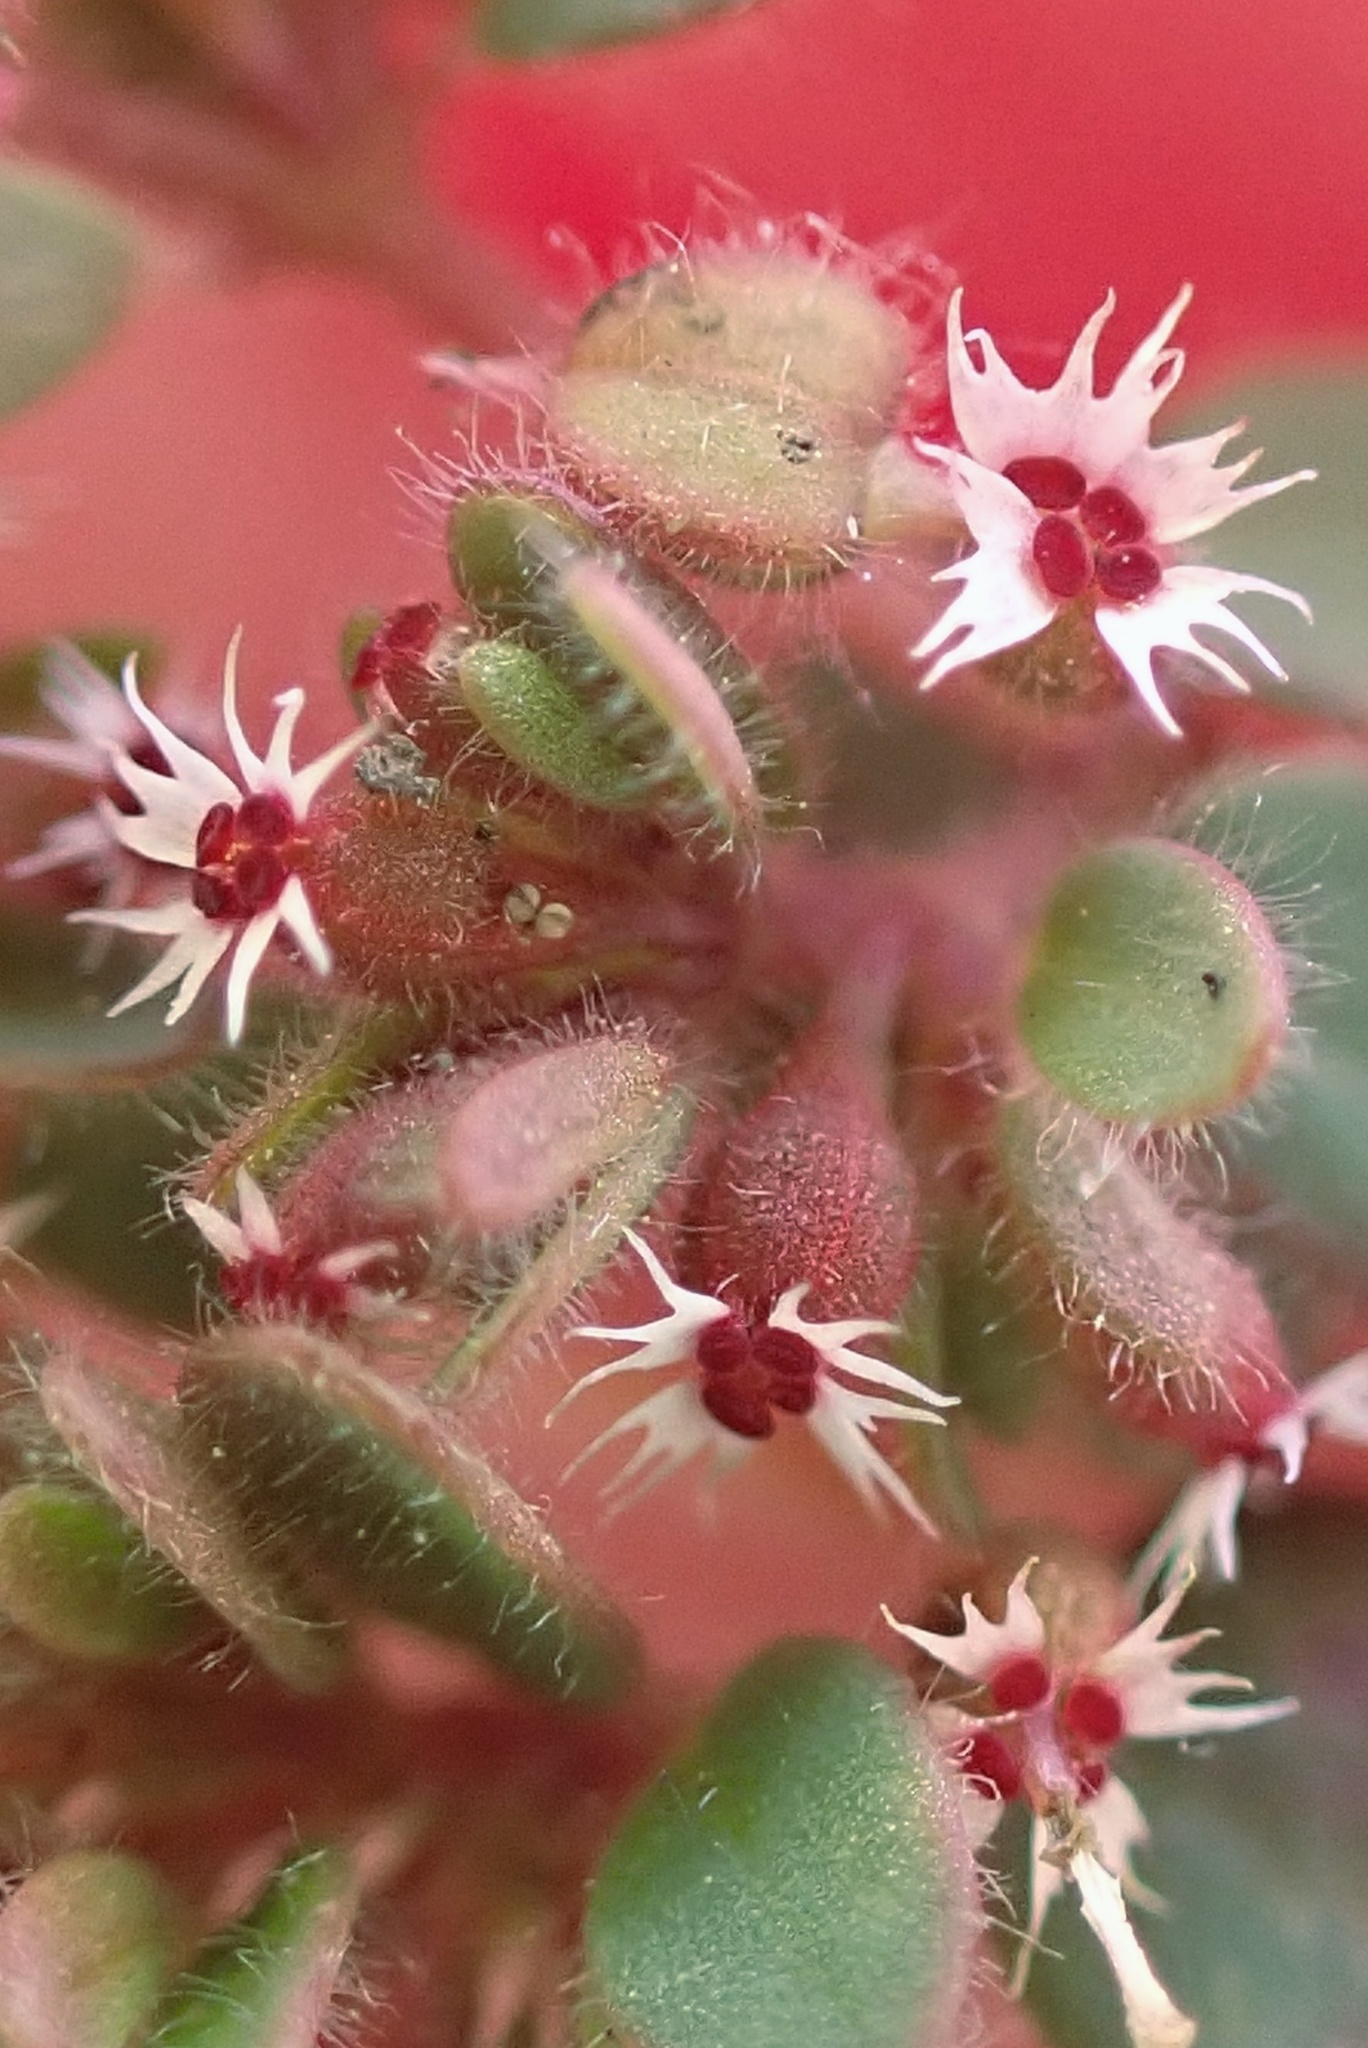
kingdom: Plantae
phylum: Tracheophyta
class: Magnoliopsida
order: Malpighiales
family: Euphorbiaceae
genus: Euphorbia
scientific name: Euphorbia setiloba
